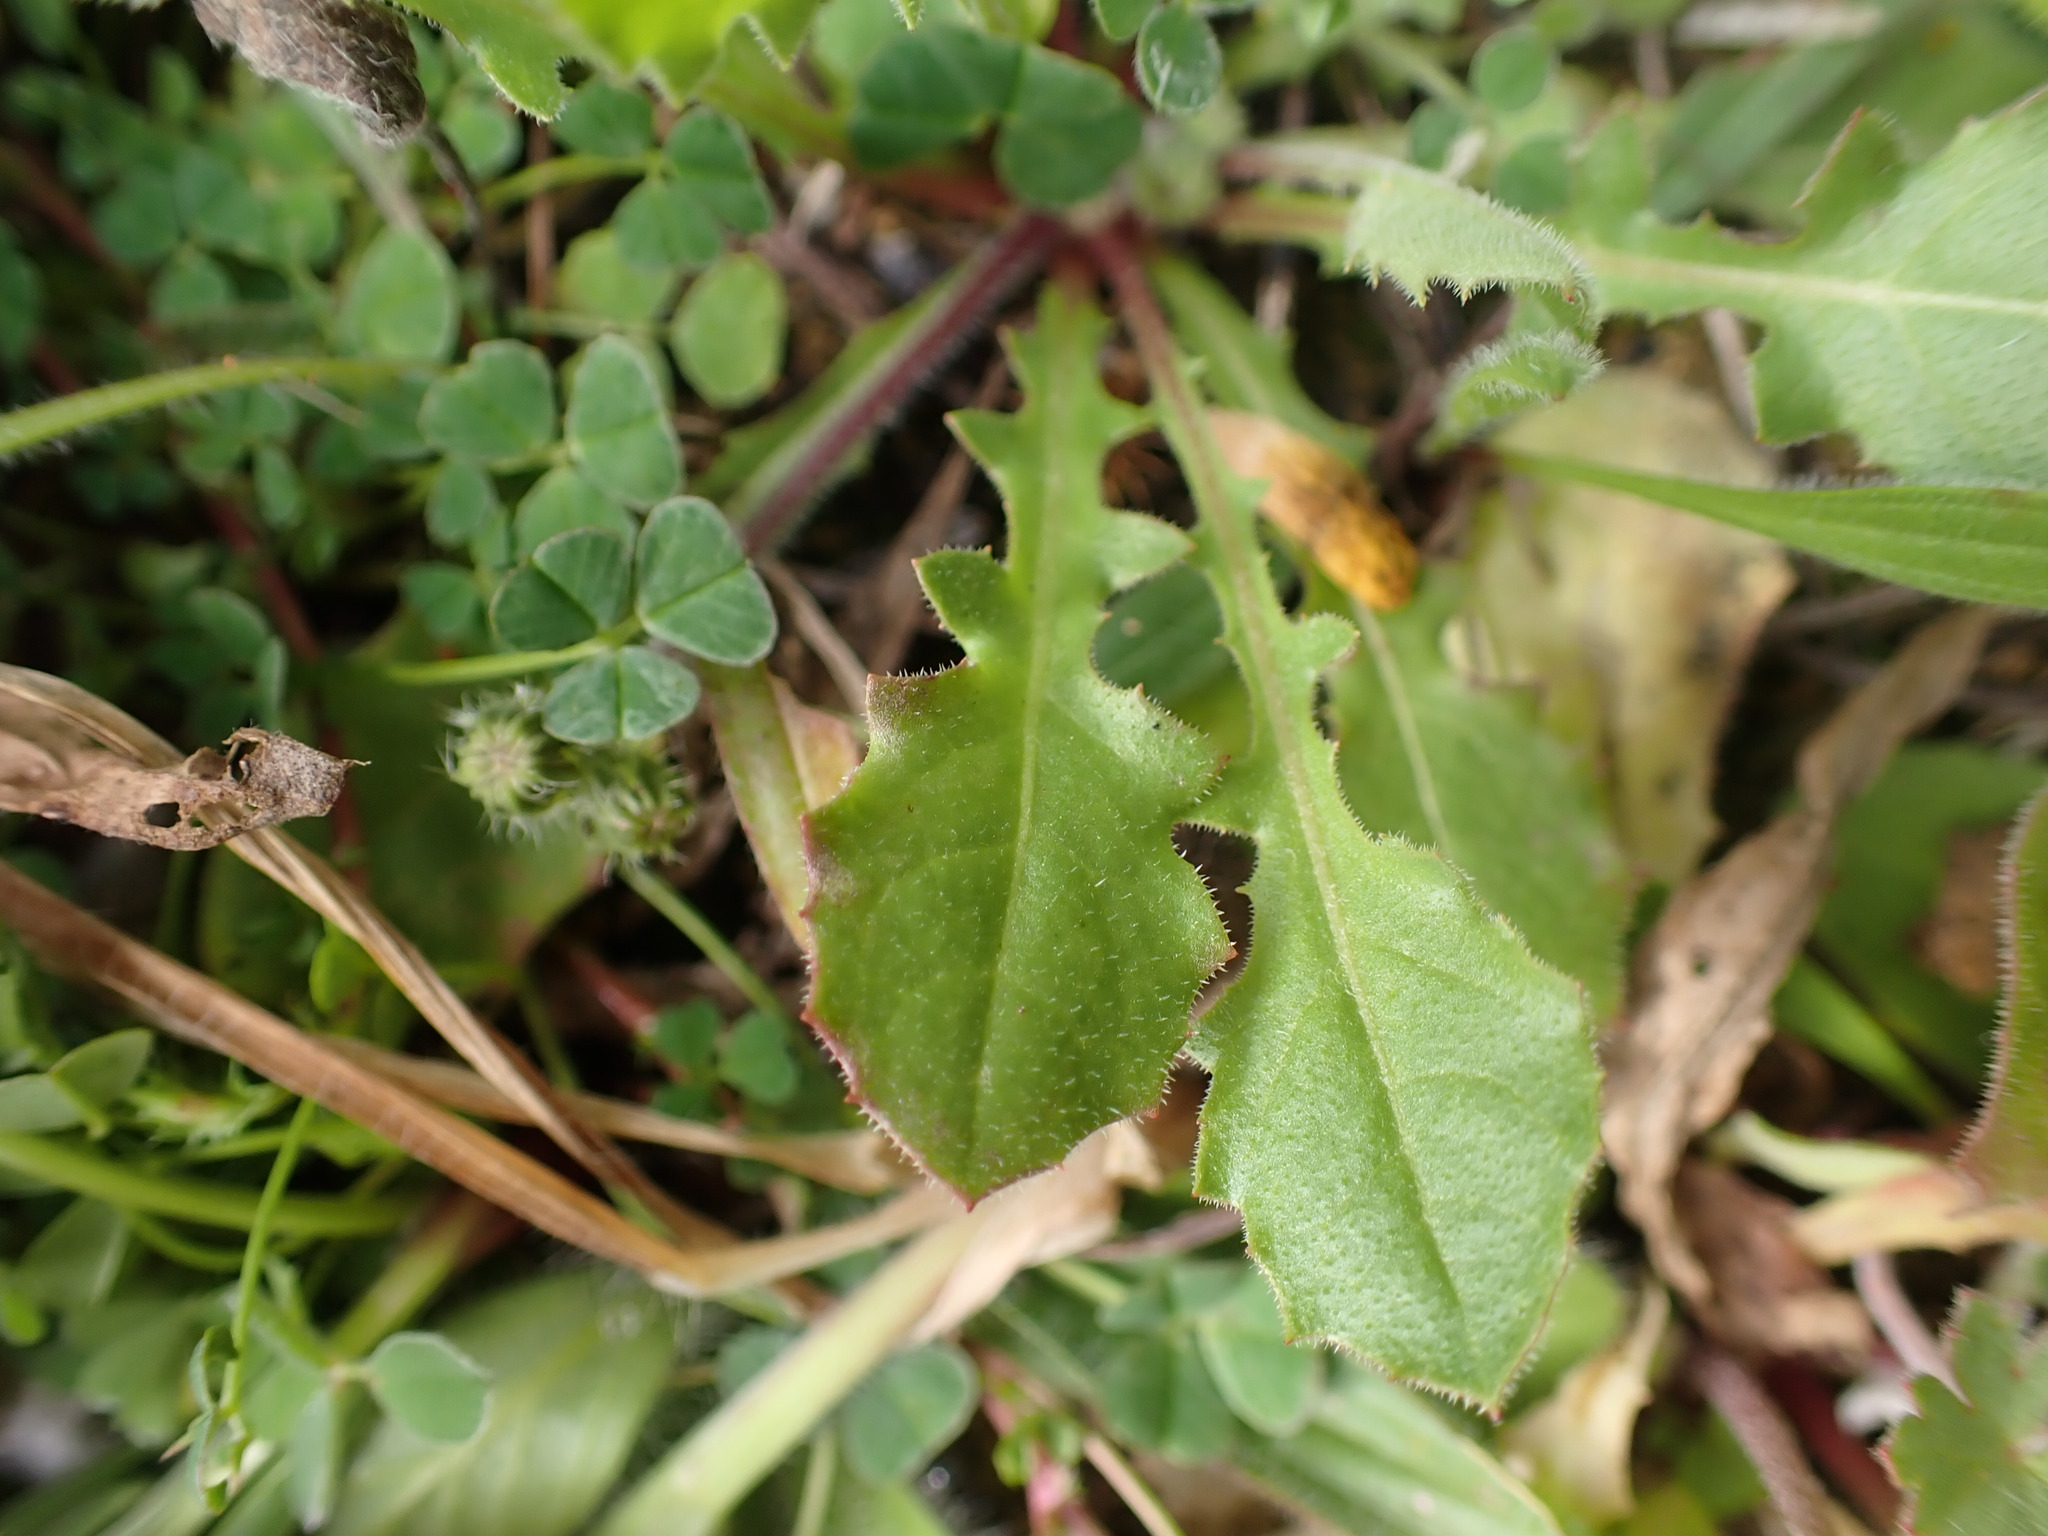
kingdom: Plantae
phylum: Tracheophyta
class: Magnoliopsida
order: Asterales
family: Asteraceae
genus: Crepis
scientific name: Crepis sancta
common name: Hawk's-beard
